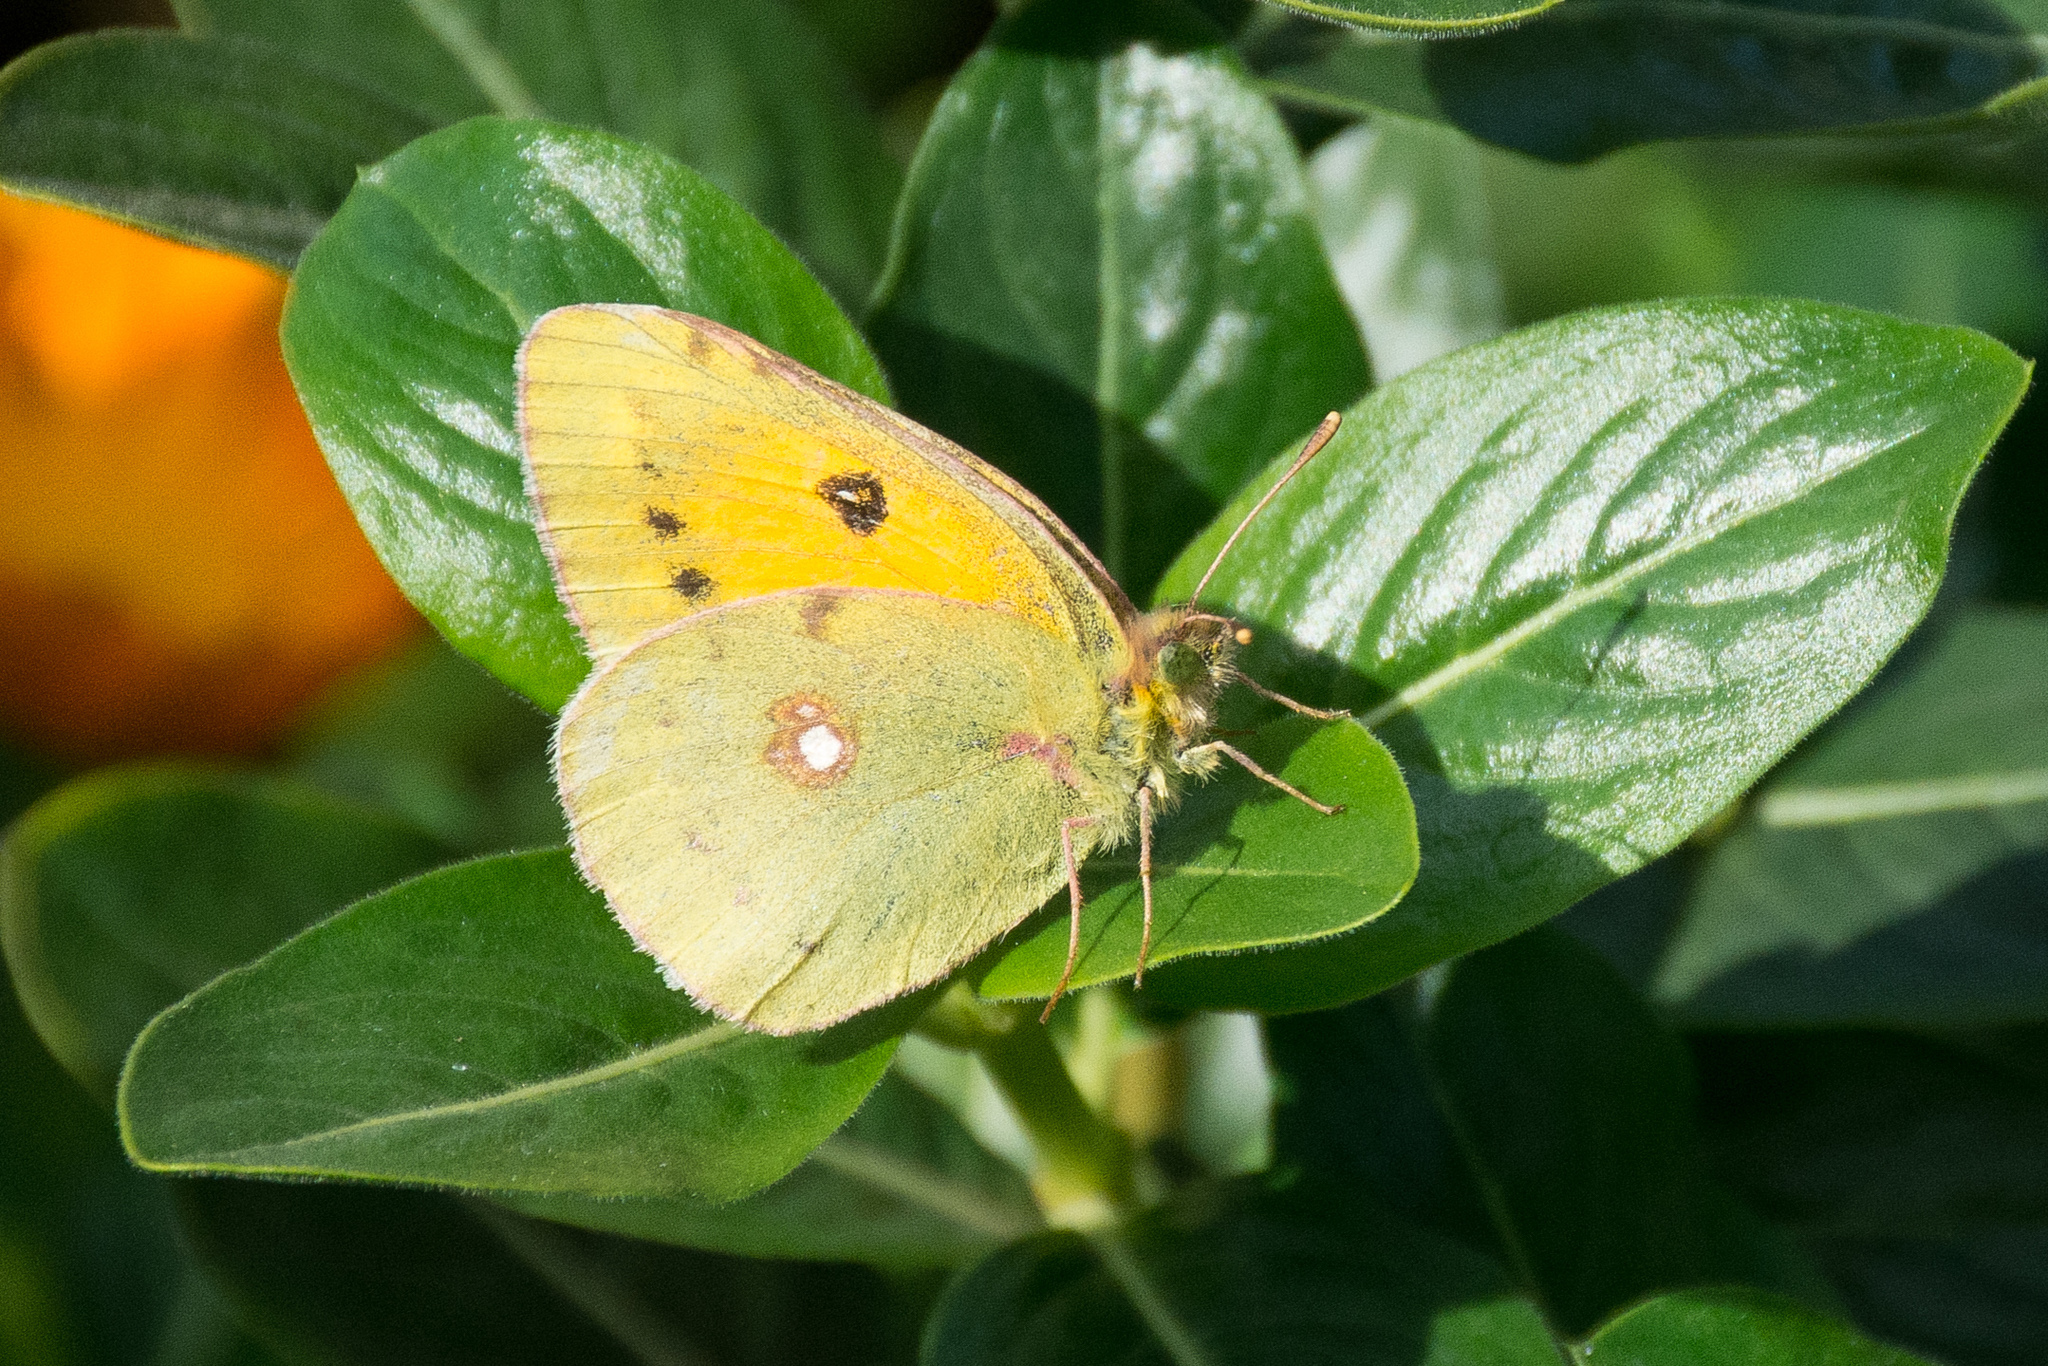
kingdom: Animalia
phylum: Arthropoda
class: Insecta
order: Lepidoptera
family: Pieridae
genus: Colias
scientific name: Colias croceus
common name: Clouded yellow
